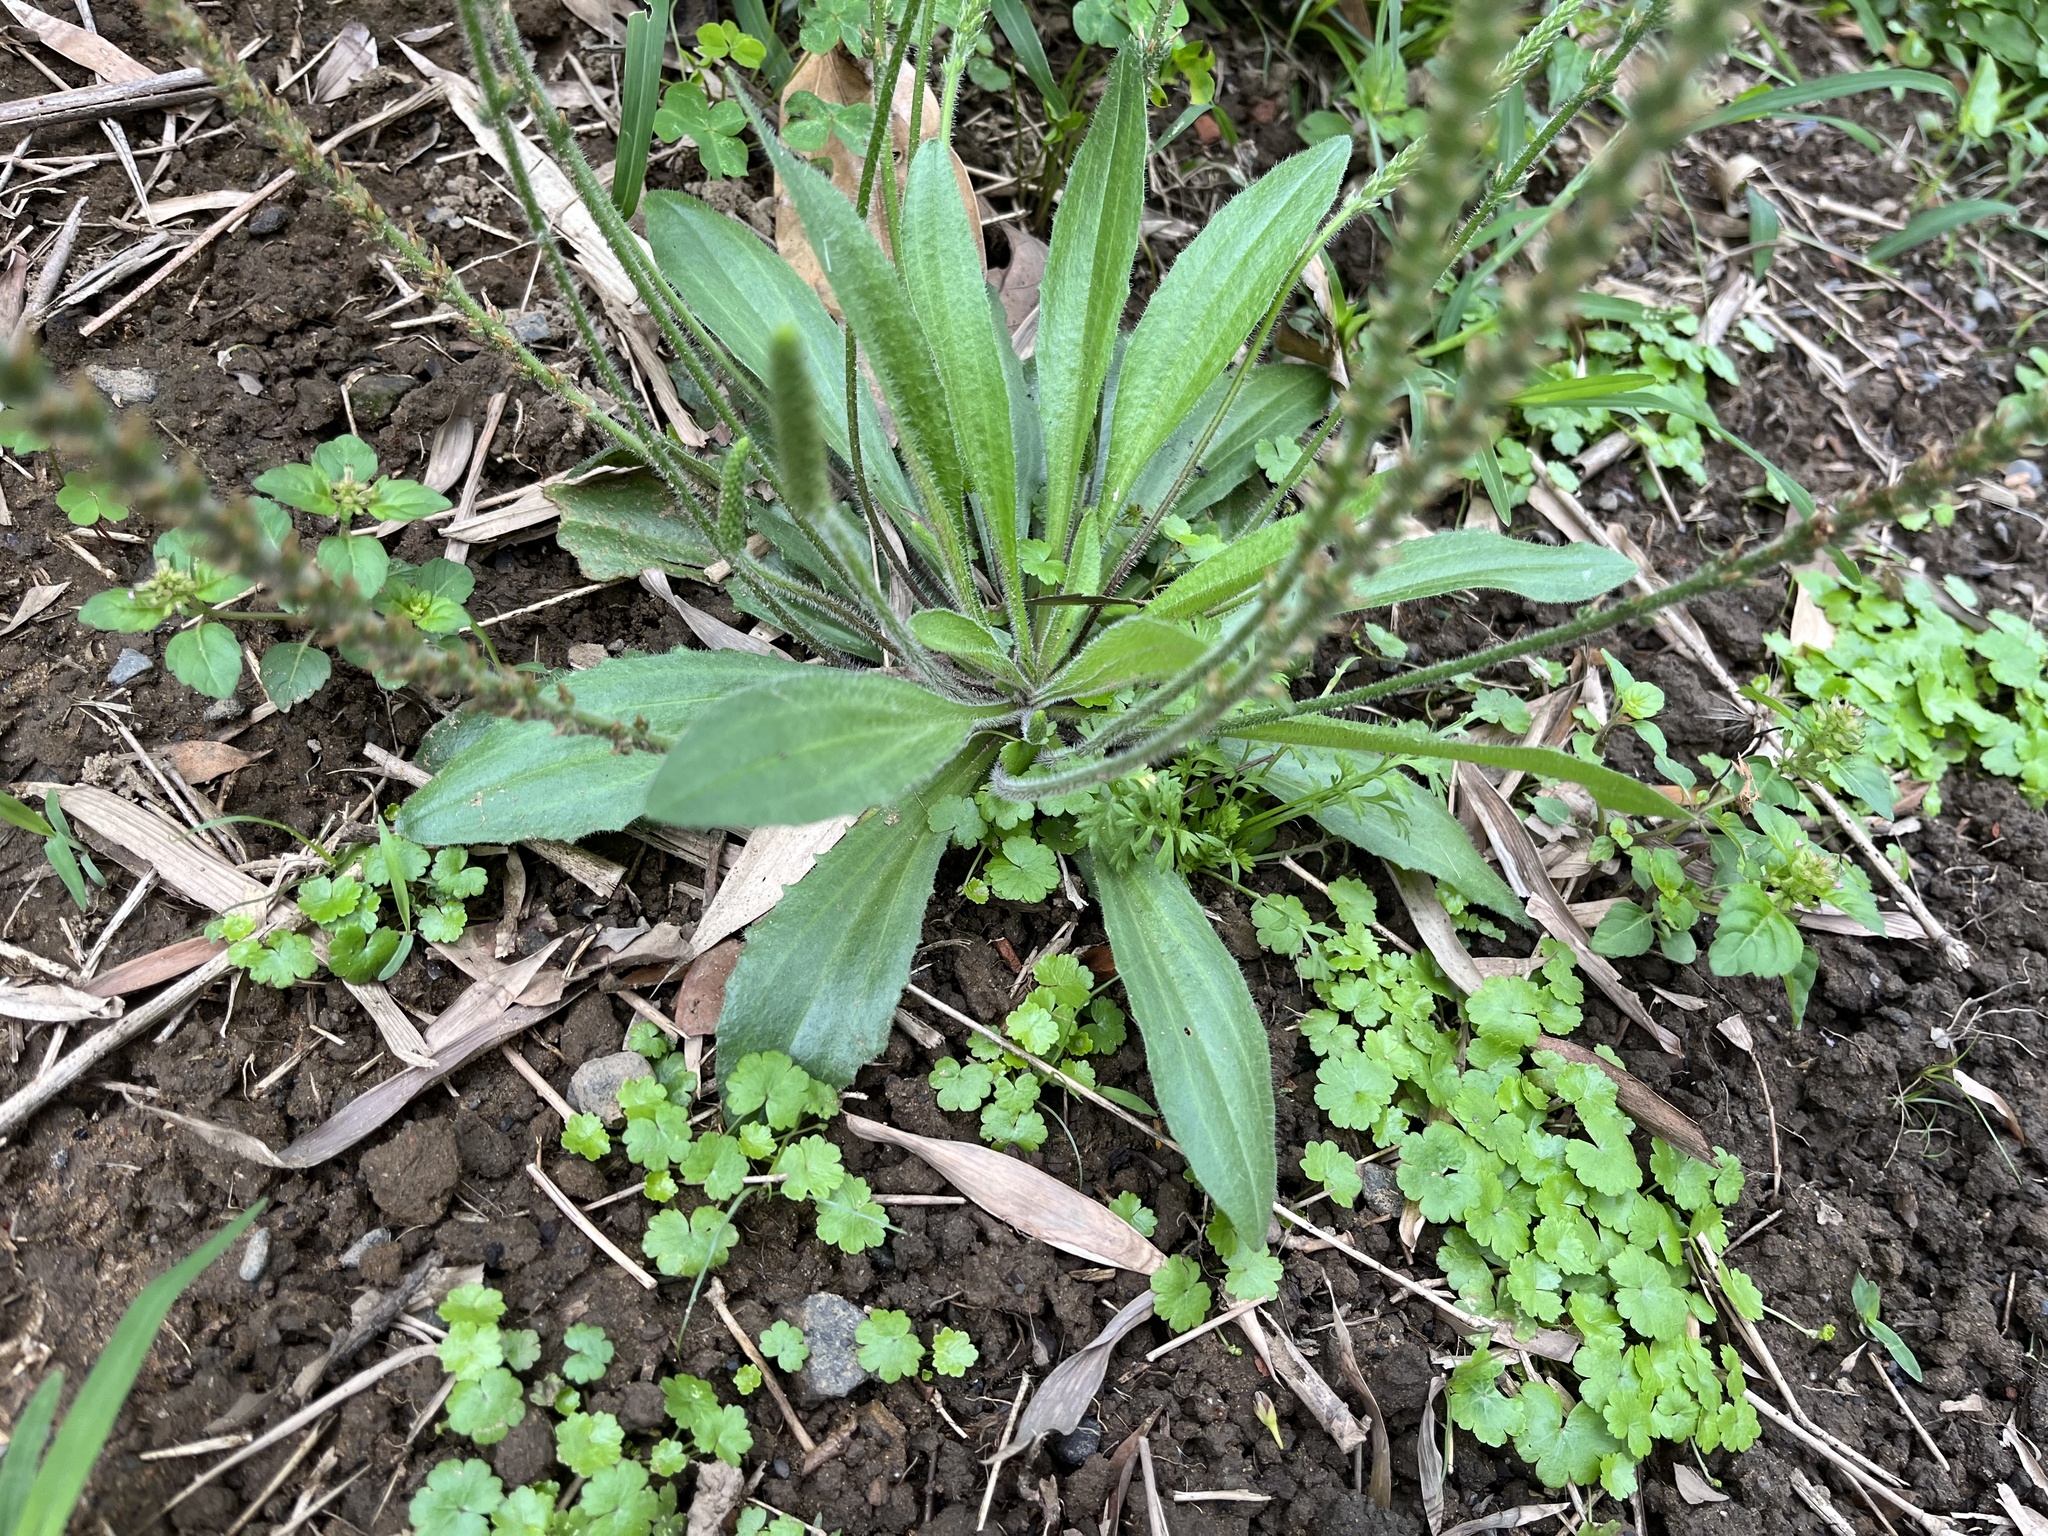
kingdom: Plantae
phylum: Tracheophyta
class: Magnoliopsida
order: Lamiales
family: Plantaginaceae
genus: Plantago
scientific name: Plantago virginica
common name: Hoary plantain
